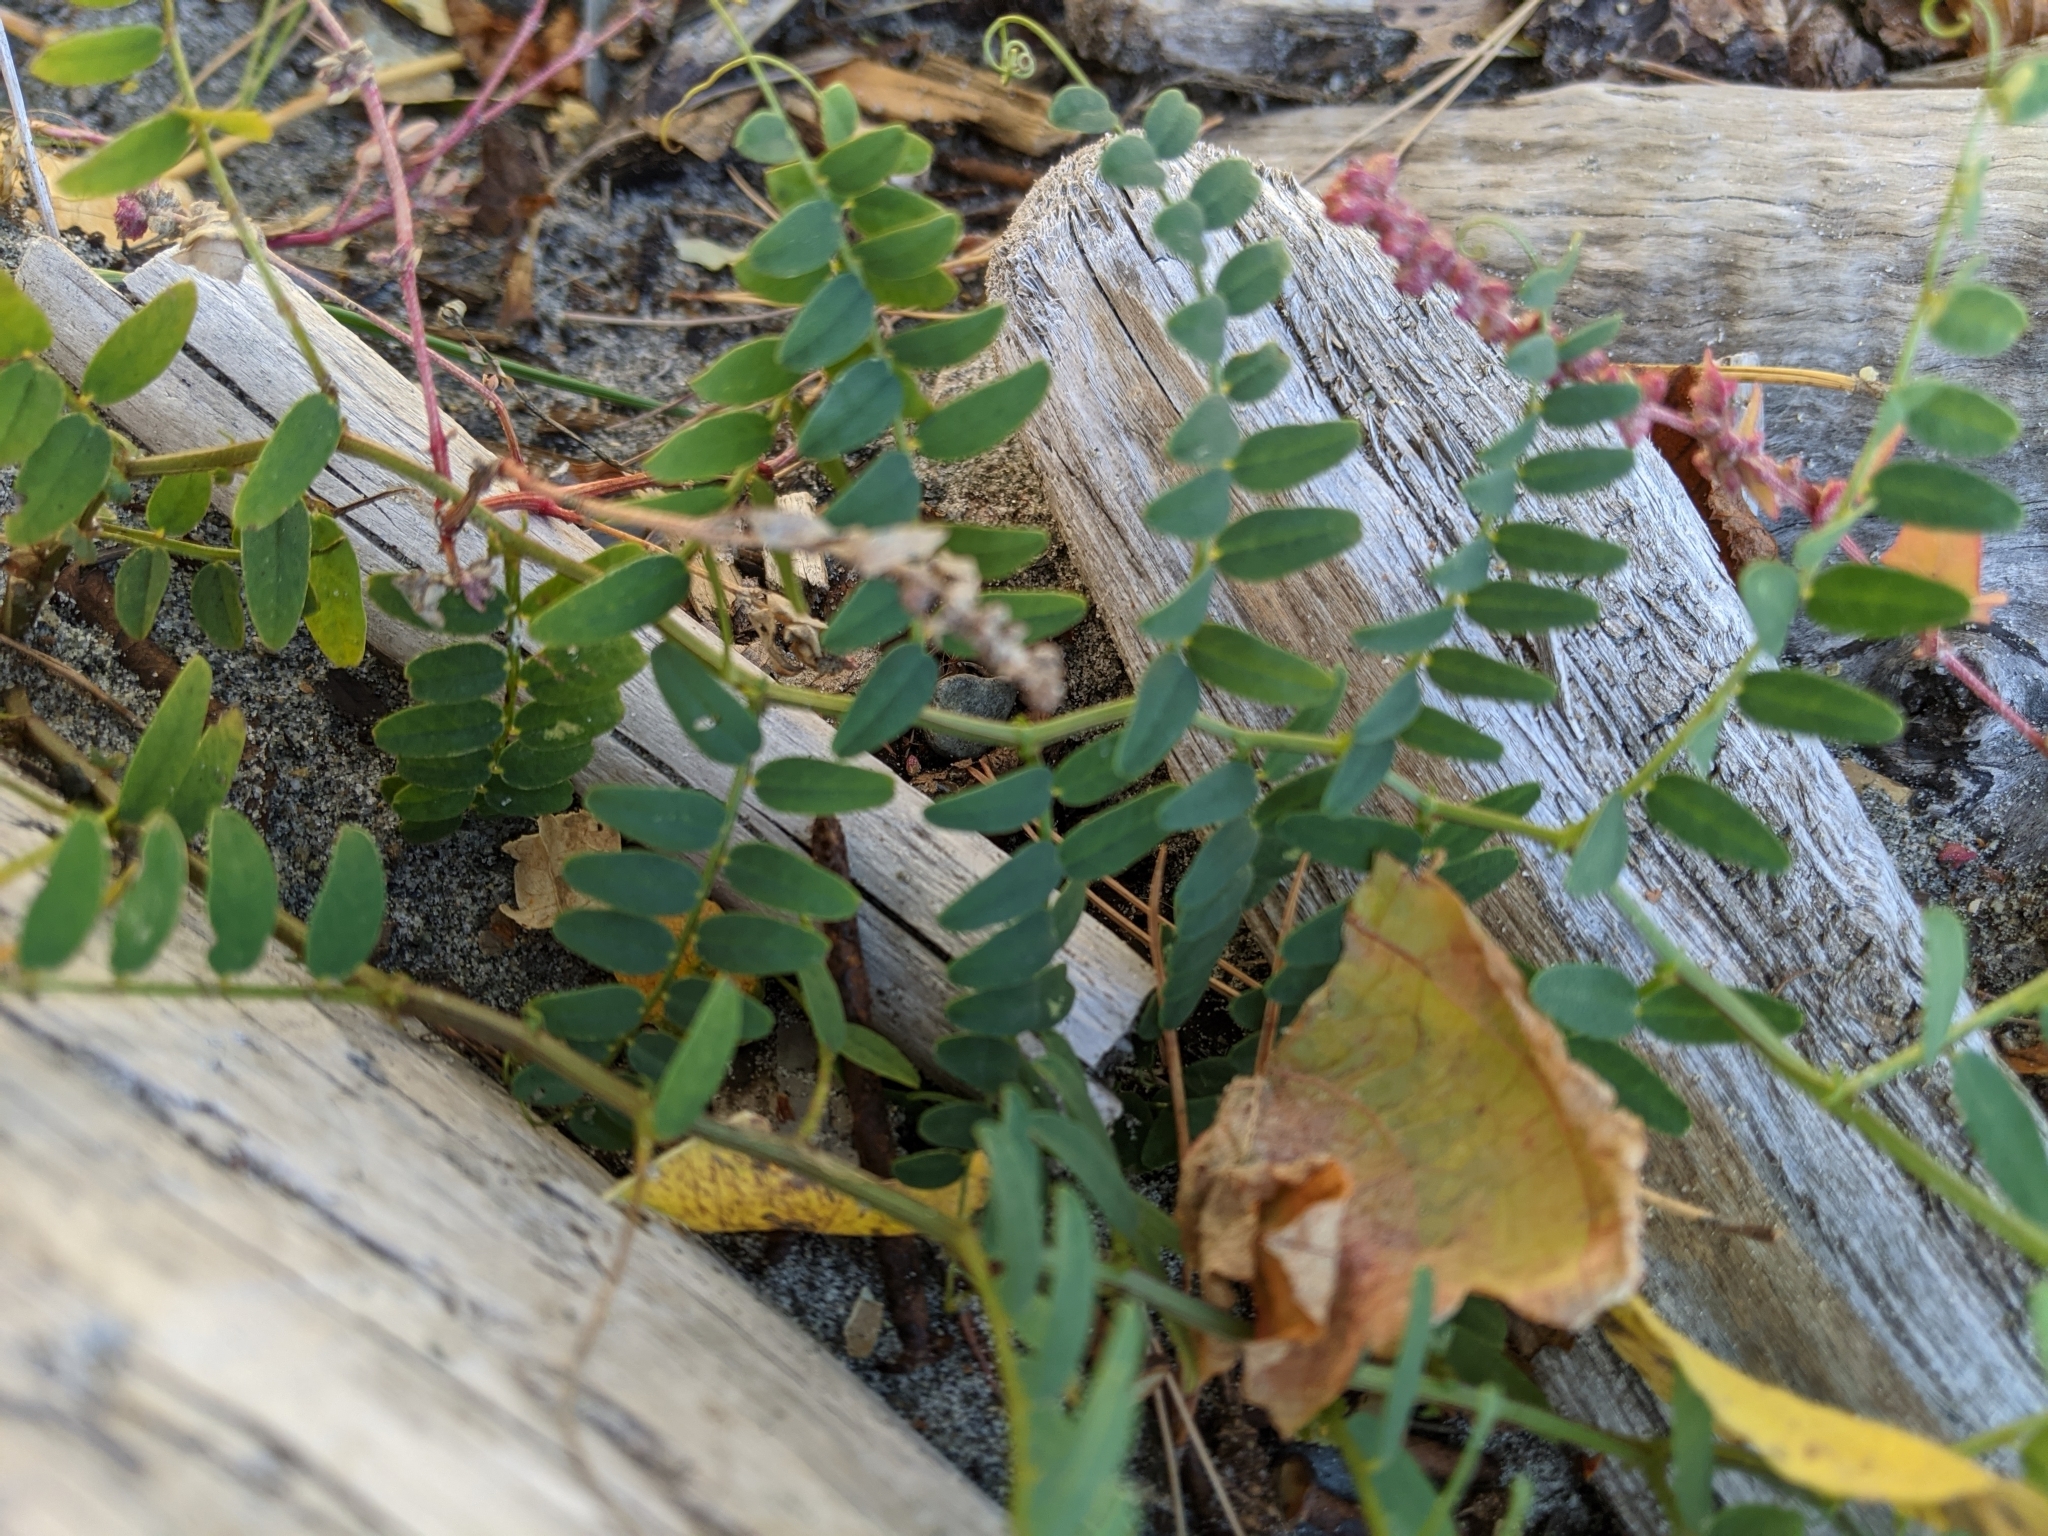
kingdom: Plantae
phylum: Tracheophyta
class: Magnoliopsida
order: Fabales
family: Fabaceae
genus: Vicia
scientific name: Vicia
